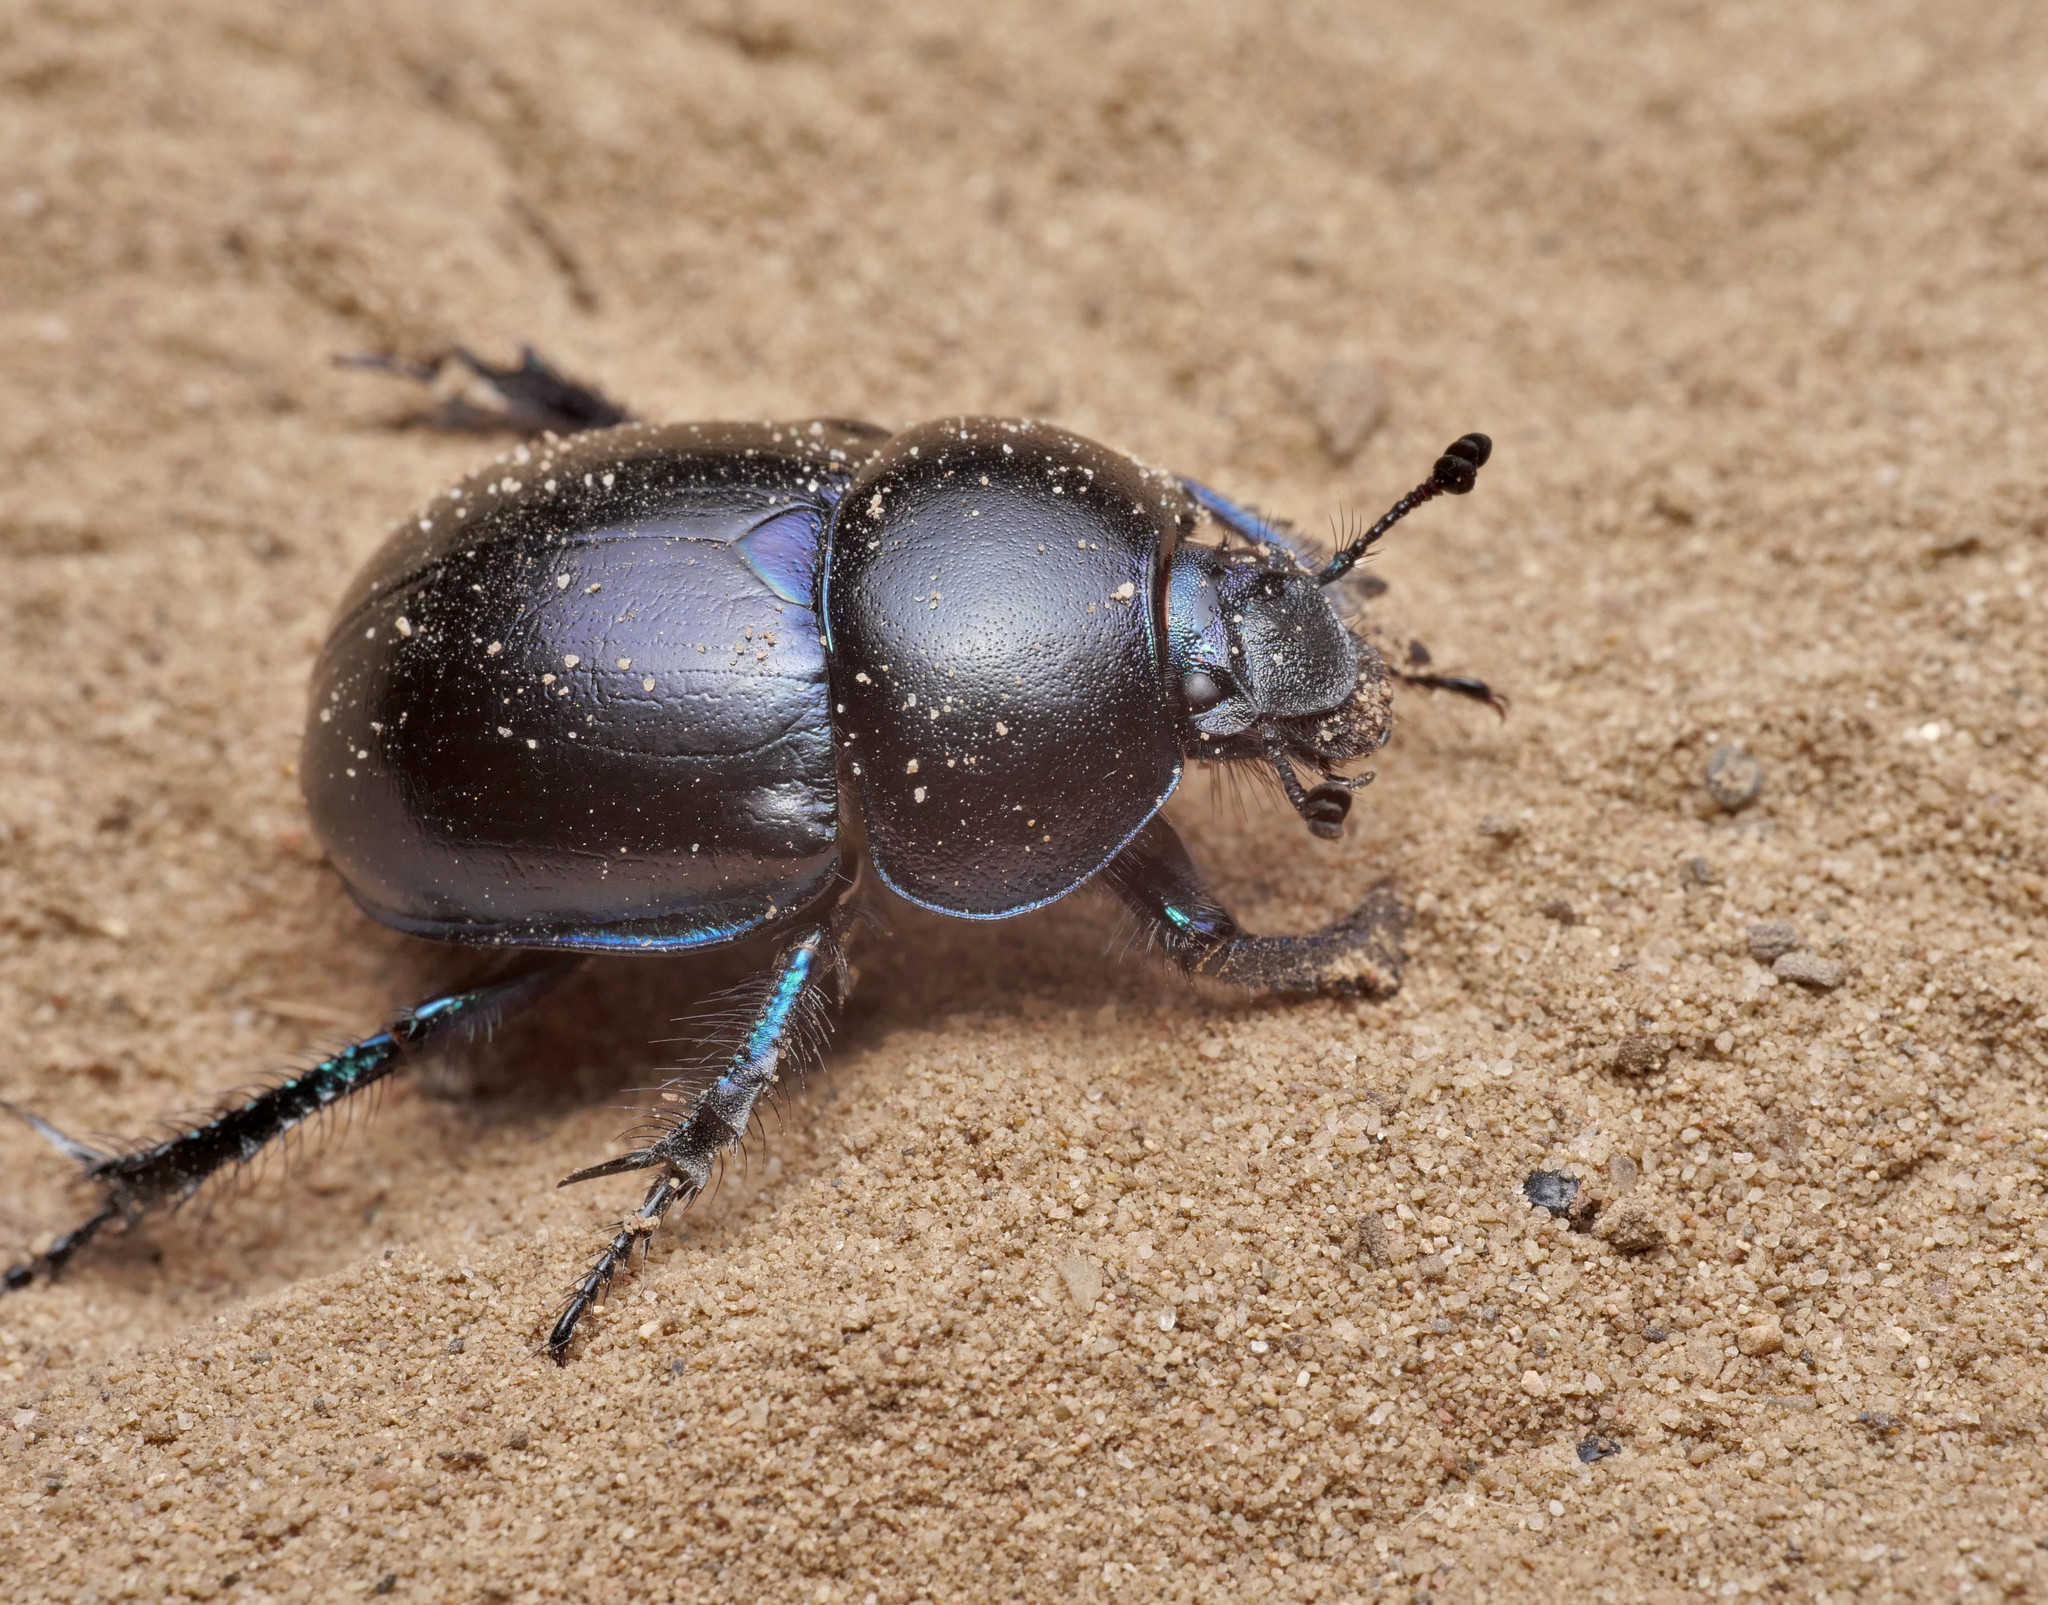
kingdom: Animalia
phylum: Arthropoda
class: Insecta
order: Coleoptera
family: Geotrupidae
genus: Trypocopris
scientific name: Trypocopris vernalis
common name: Spring dumbledor
